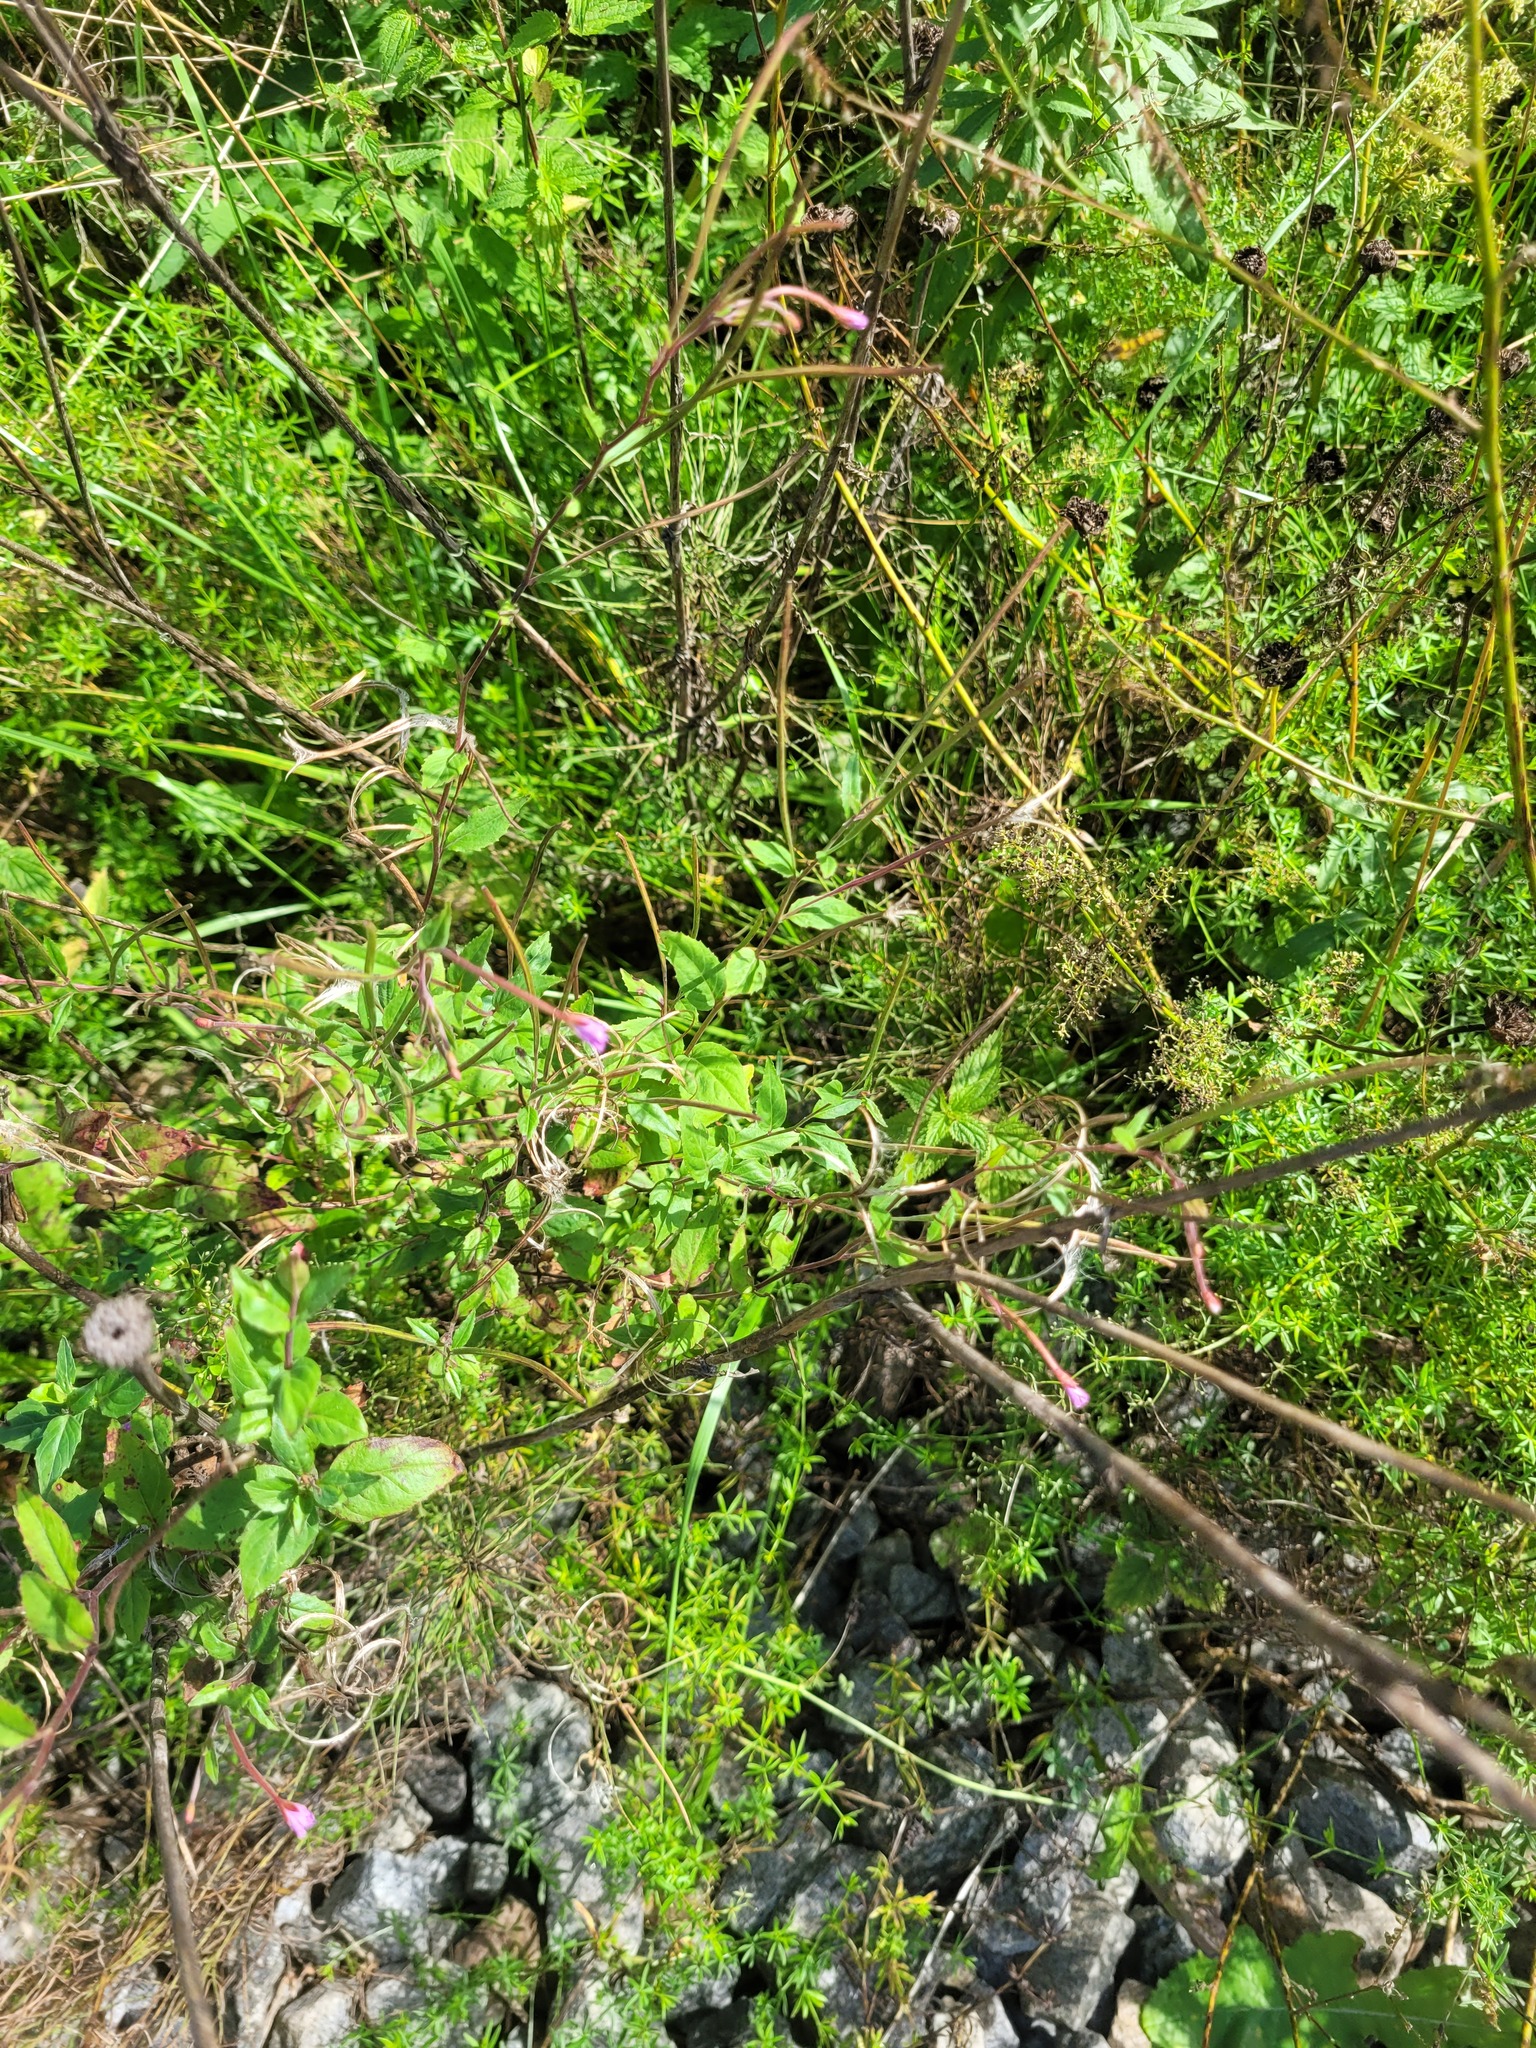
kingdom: Plantae
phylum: Tracheophyta
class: Magnoliopsida
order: Myrtales
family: Onagraceae
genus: Epilobium
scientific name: Epilobium montanum
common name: Broad-leaved willowherb
